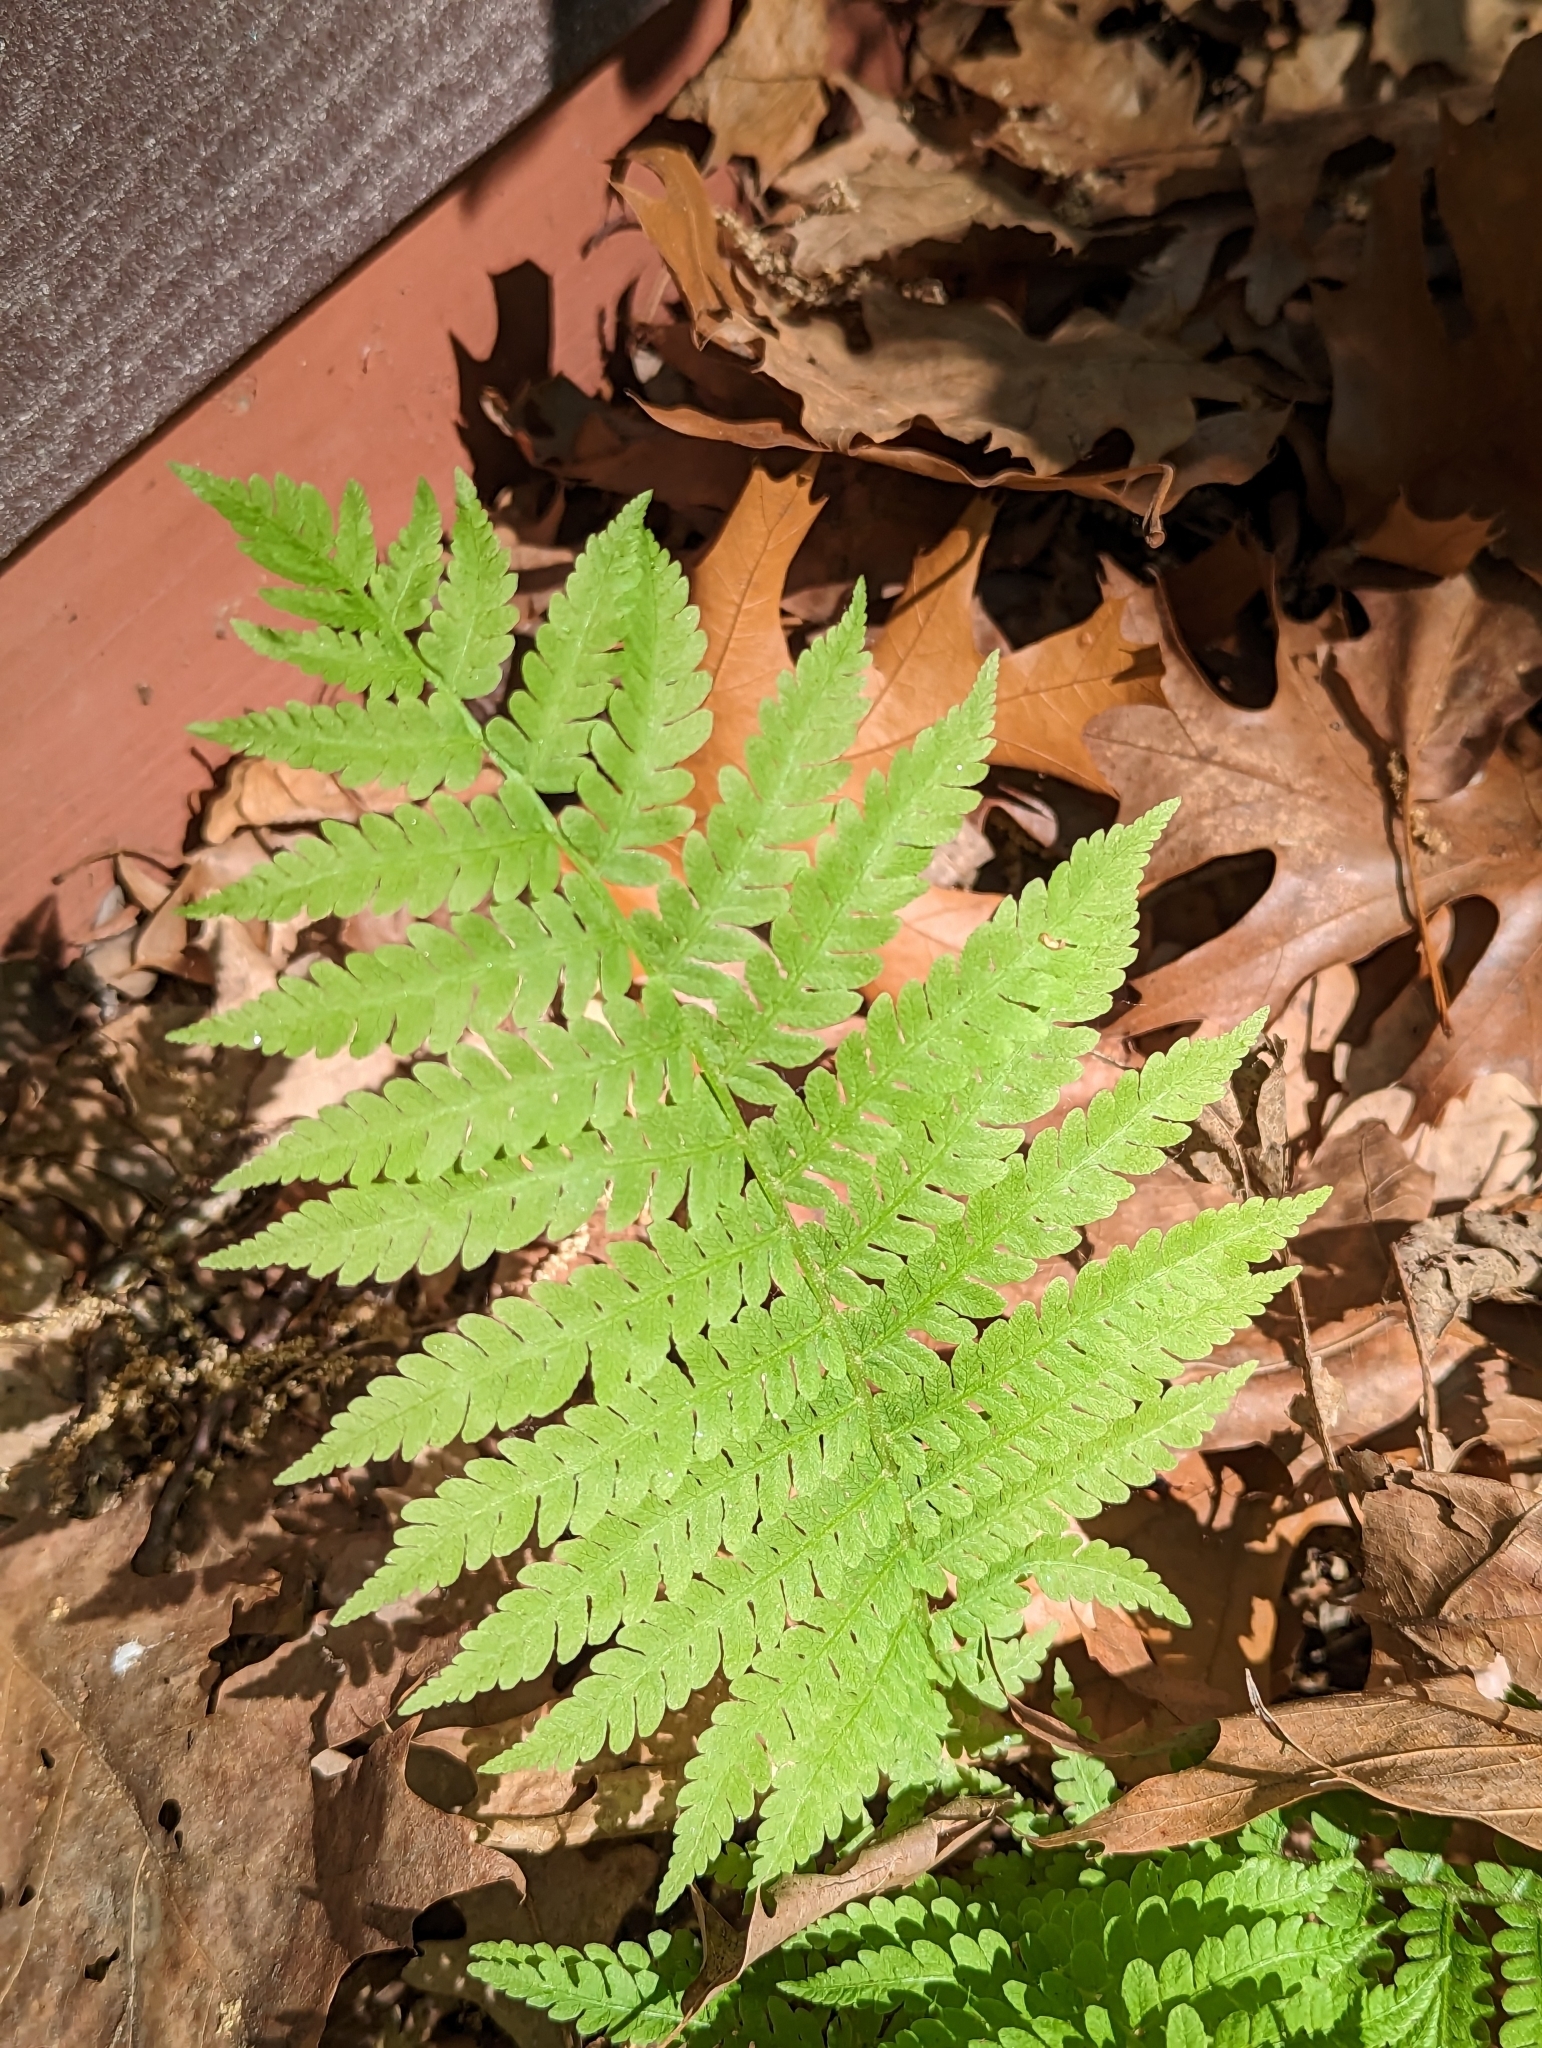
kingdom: Plantae
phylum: Tracheophyta
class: Polypodiopsida
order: Polypodiales
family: Thelypteridaceae
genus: Amauropelta
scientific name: Amauropelta noveboracensis
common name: New york fern
